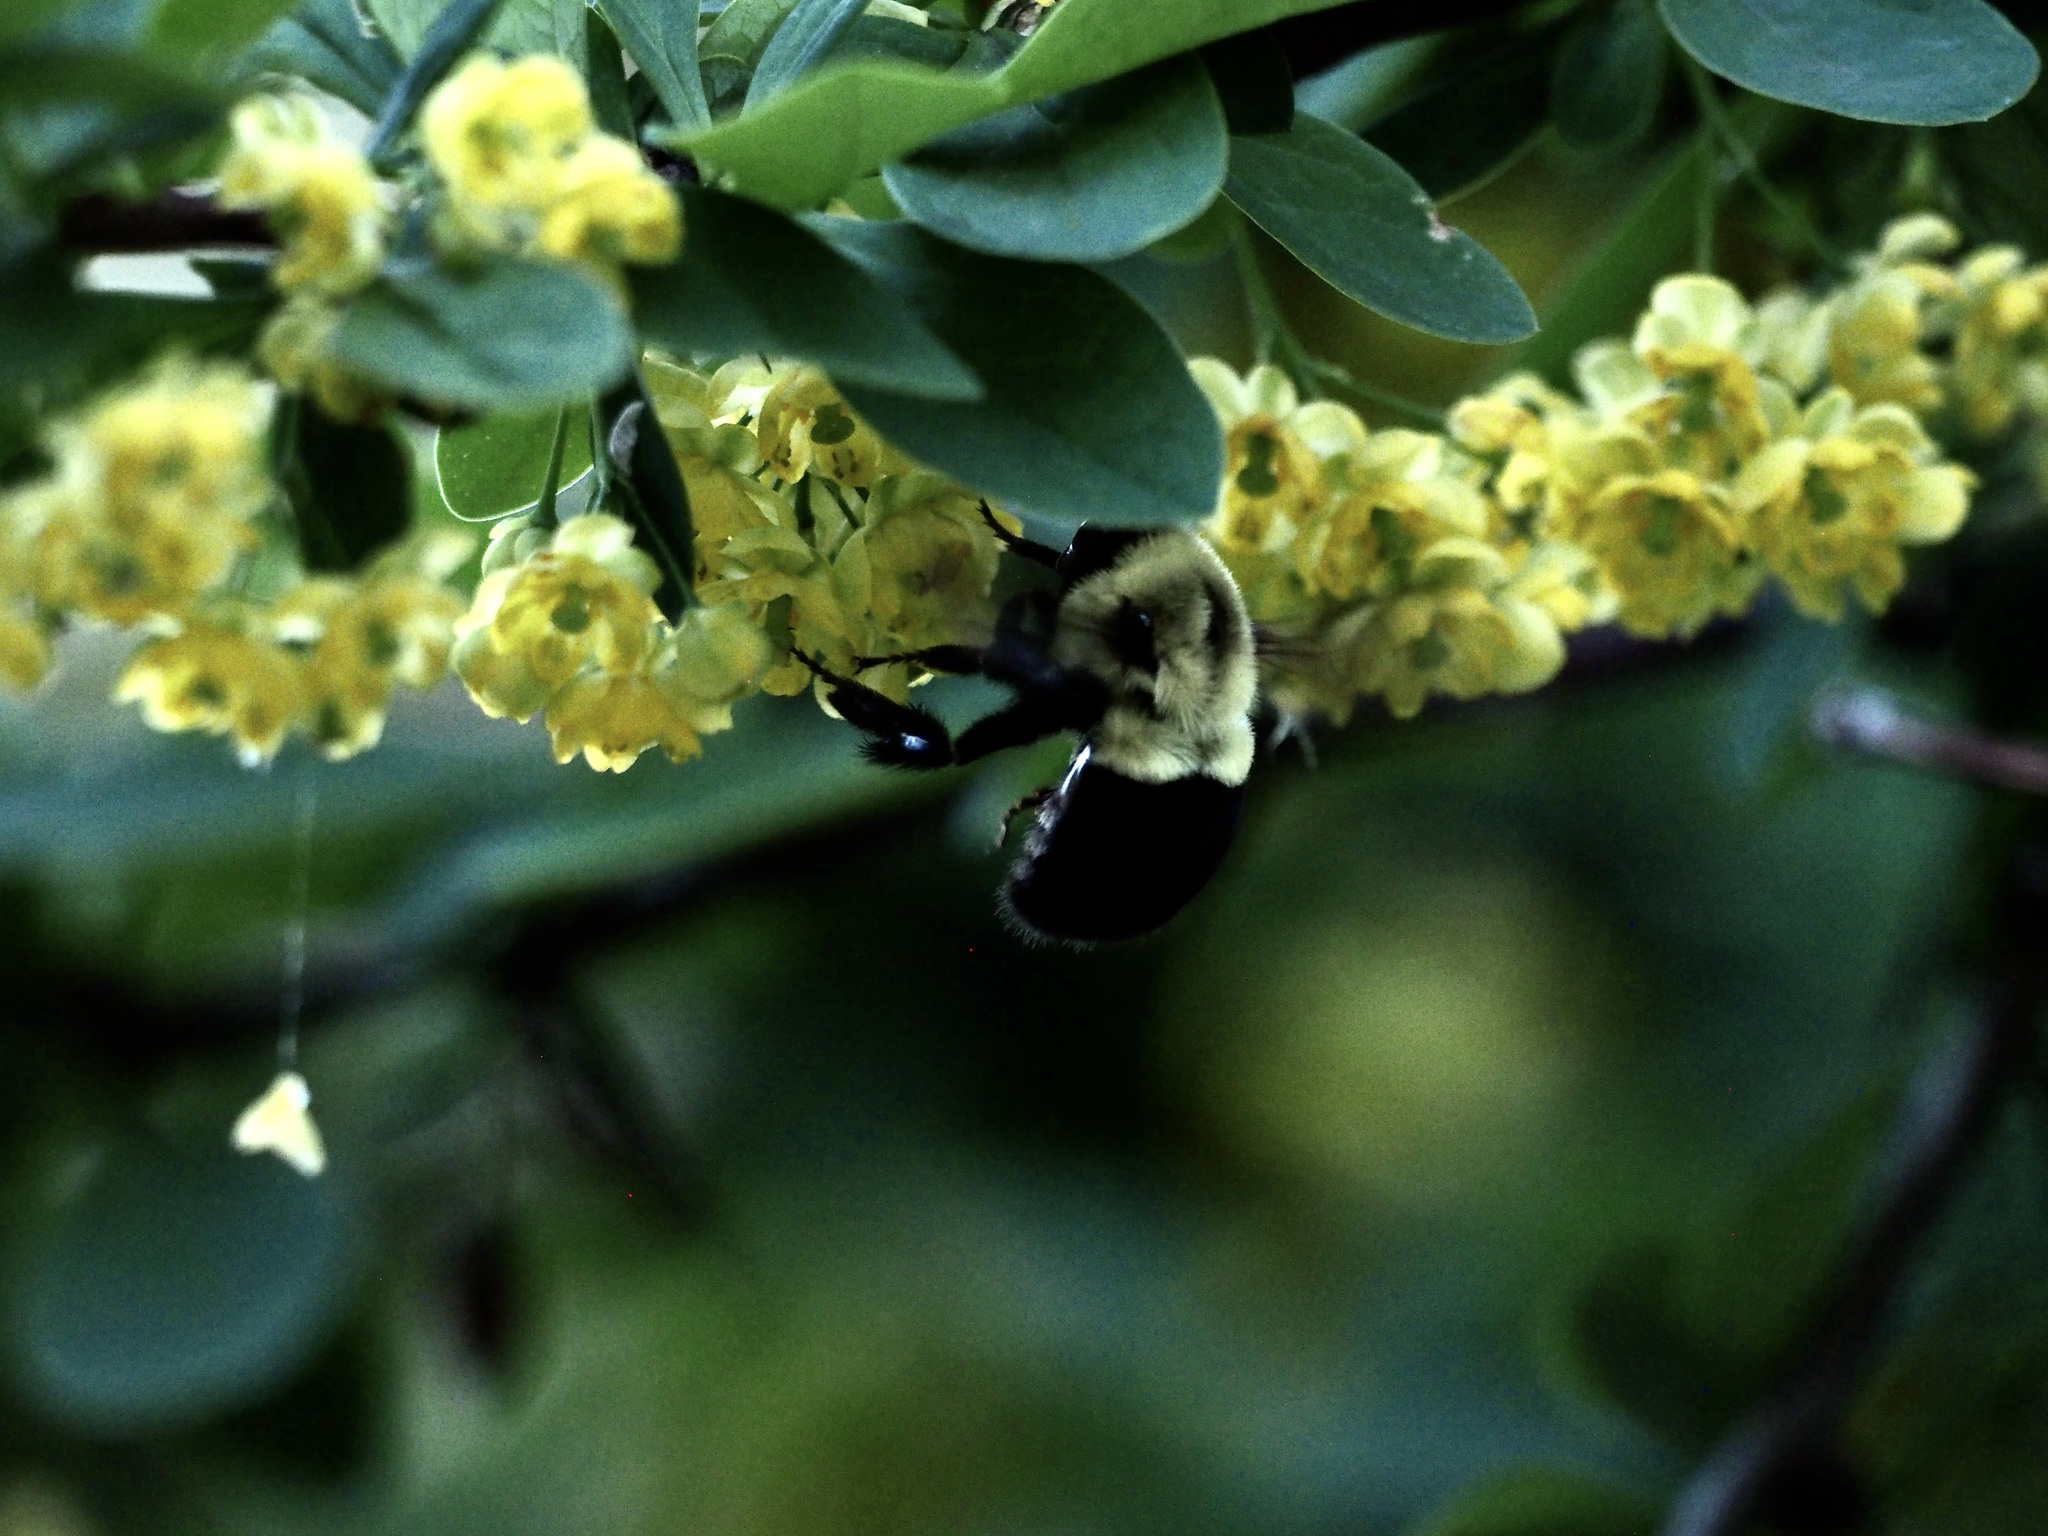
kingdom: Animalia
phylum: Arthropoda
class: Insecta
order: Hymenoptera
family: Apidae
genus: Bombus
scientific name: Bombus impatiens
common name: Common eastern bumble bee
